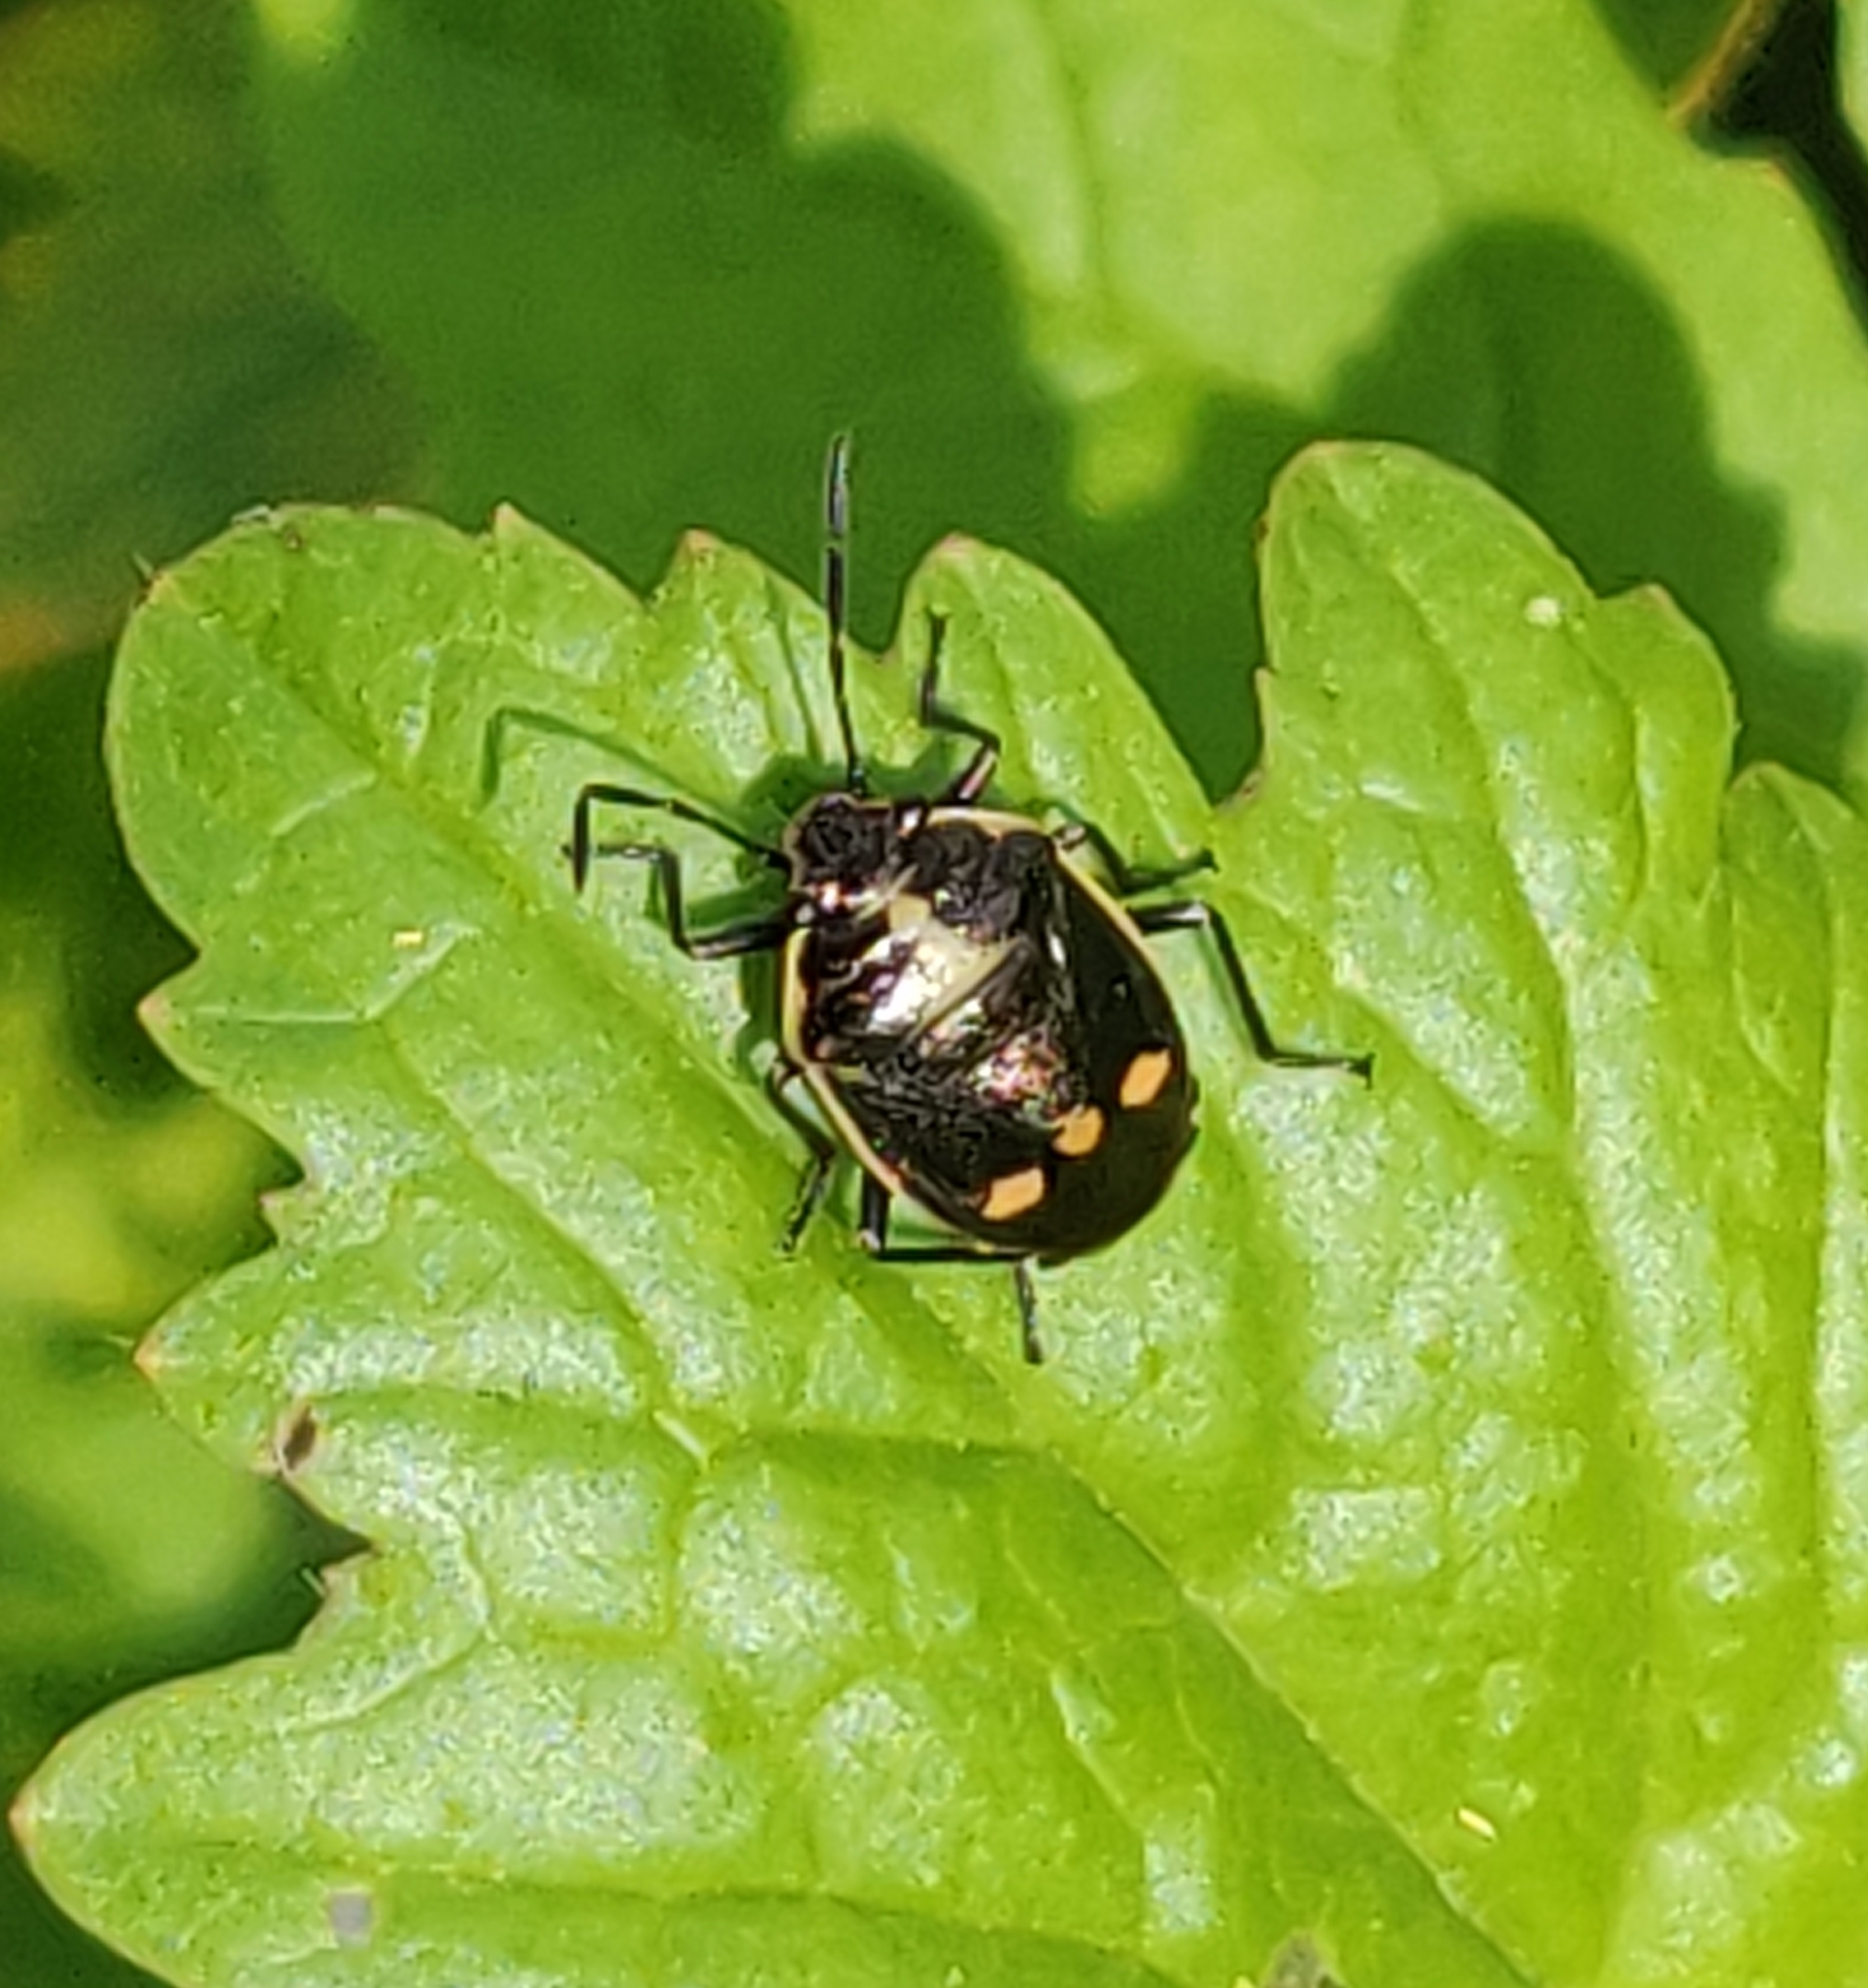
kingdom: Animalia
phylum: Arthropoda
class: Insecta
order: Hemiptera
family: Pentatomidae
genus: Eurydema
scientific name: Eurydema oleracea
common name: Cabbage bug
